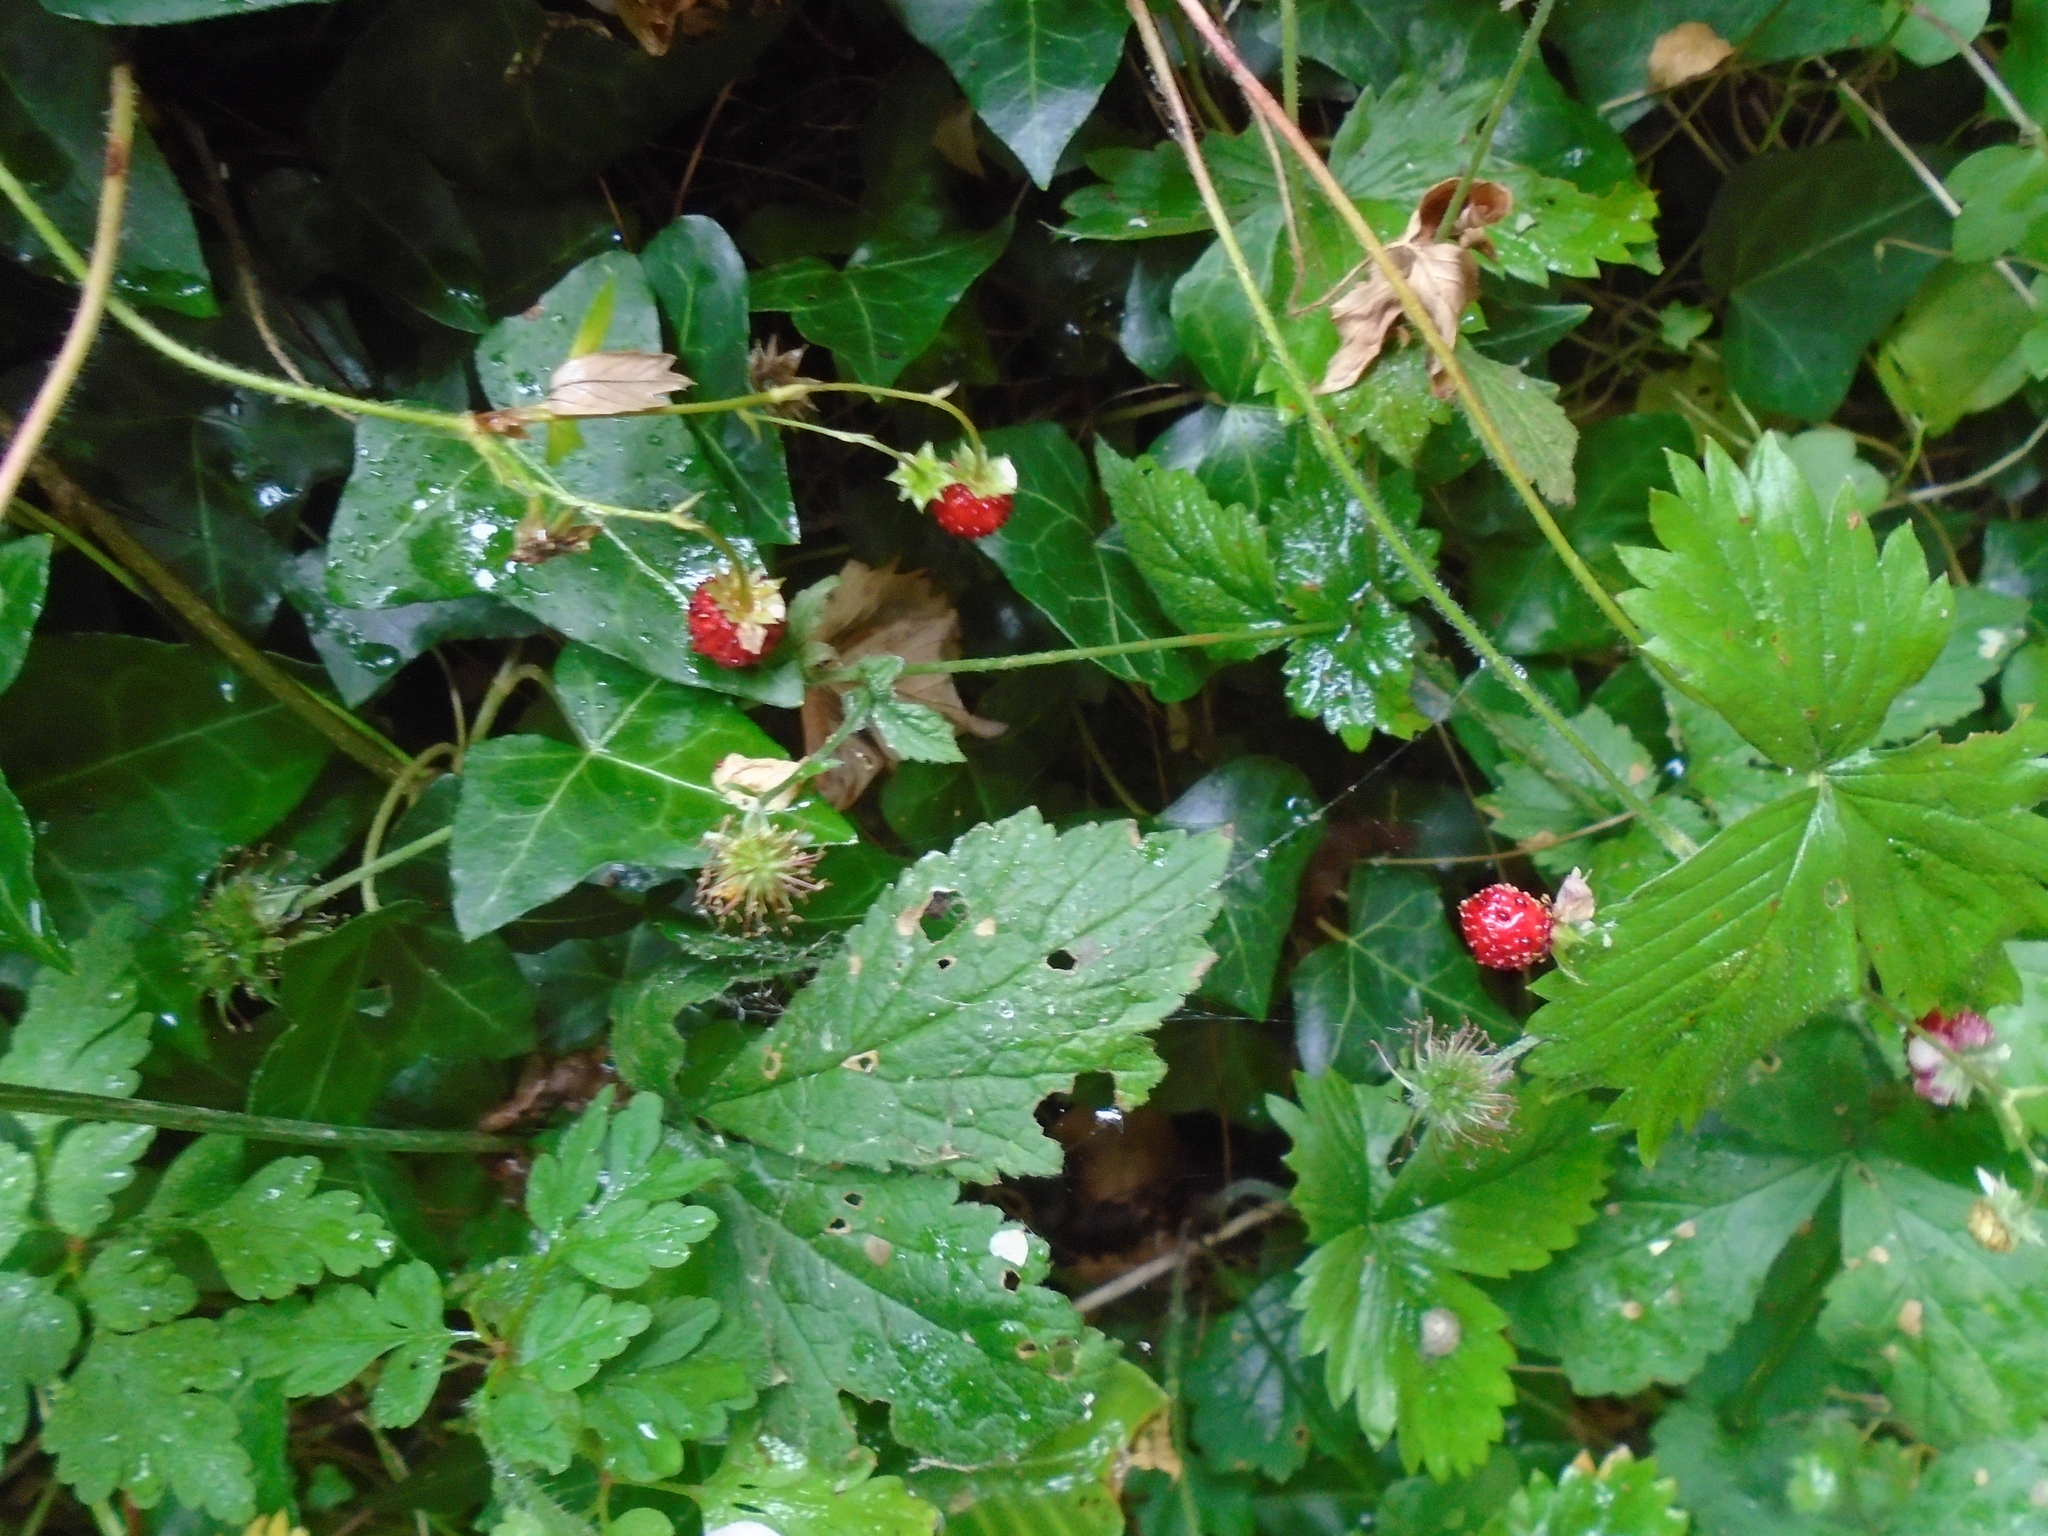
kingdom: Plantae
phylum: Tracheophyta
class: Magnoliopsida
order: Rosales
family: Rosaceae
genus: Fragaria
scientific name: Fragaria vesca
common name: Wild strawberry
